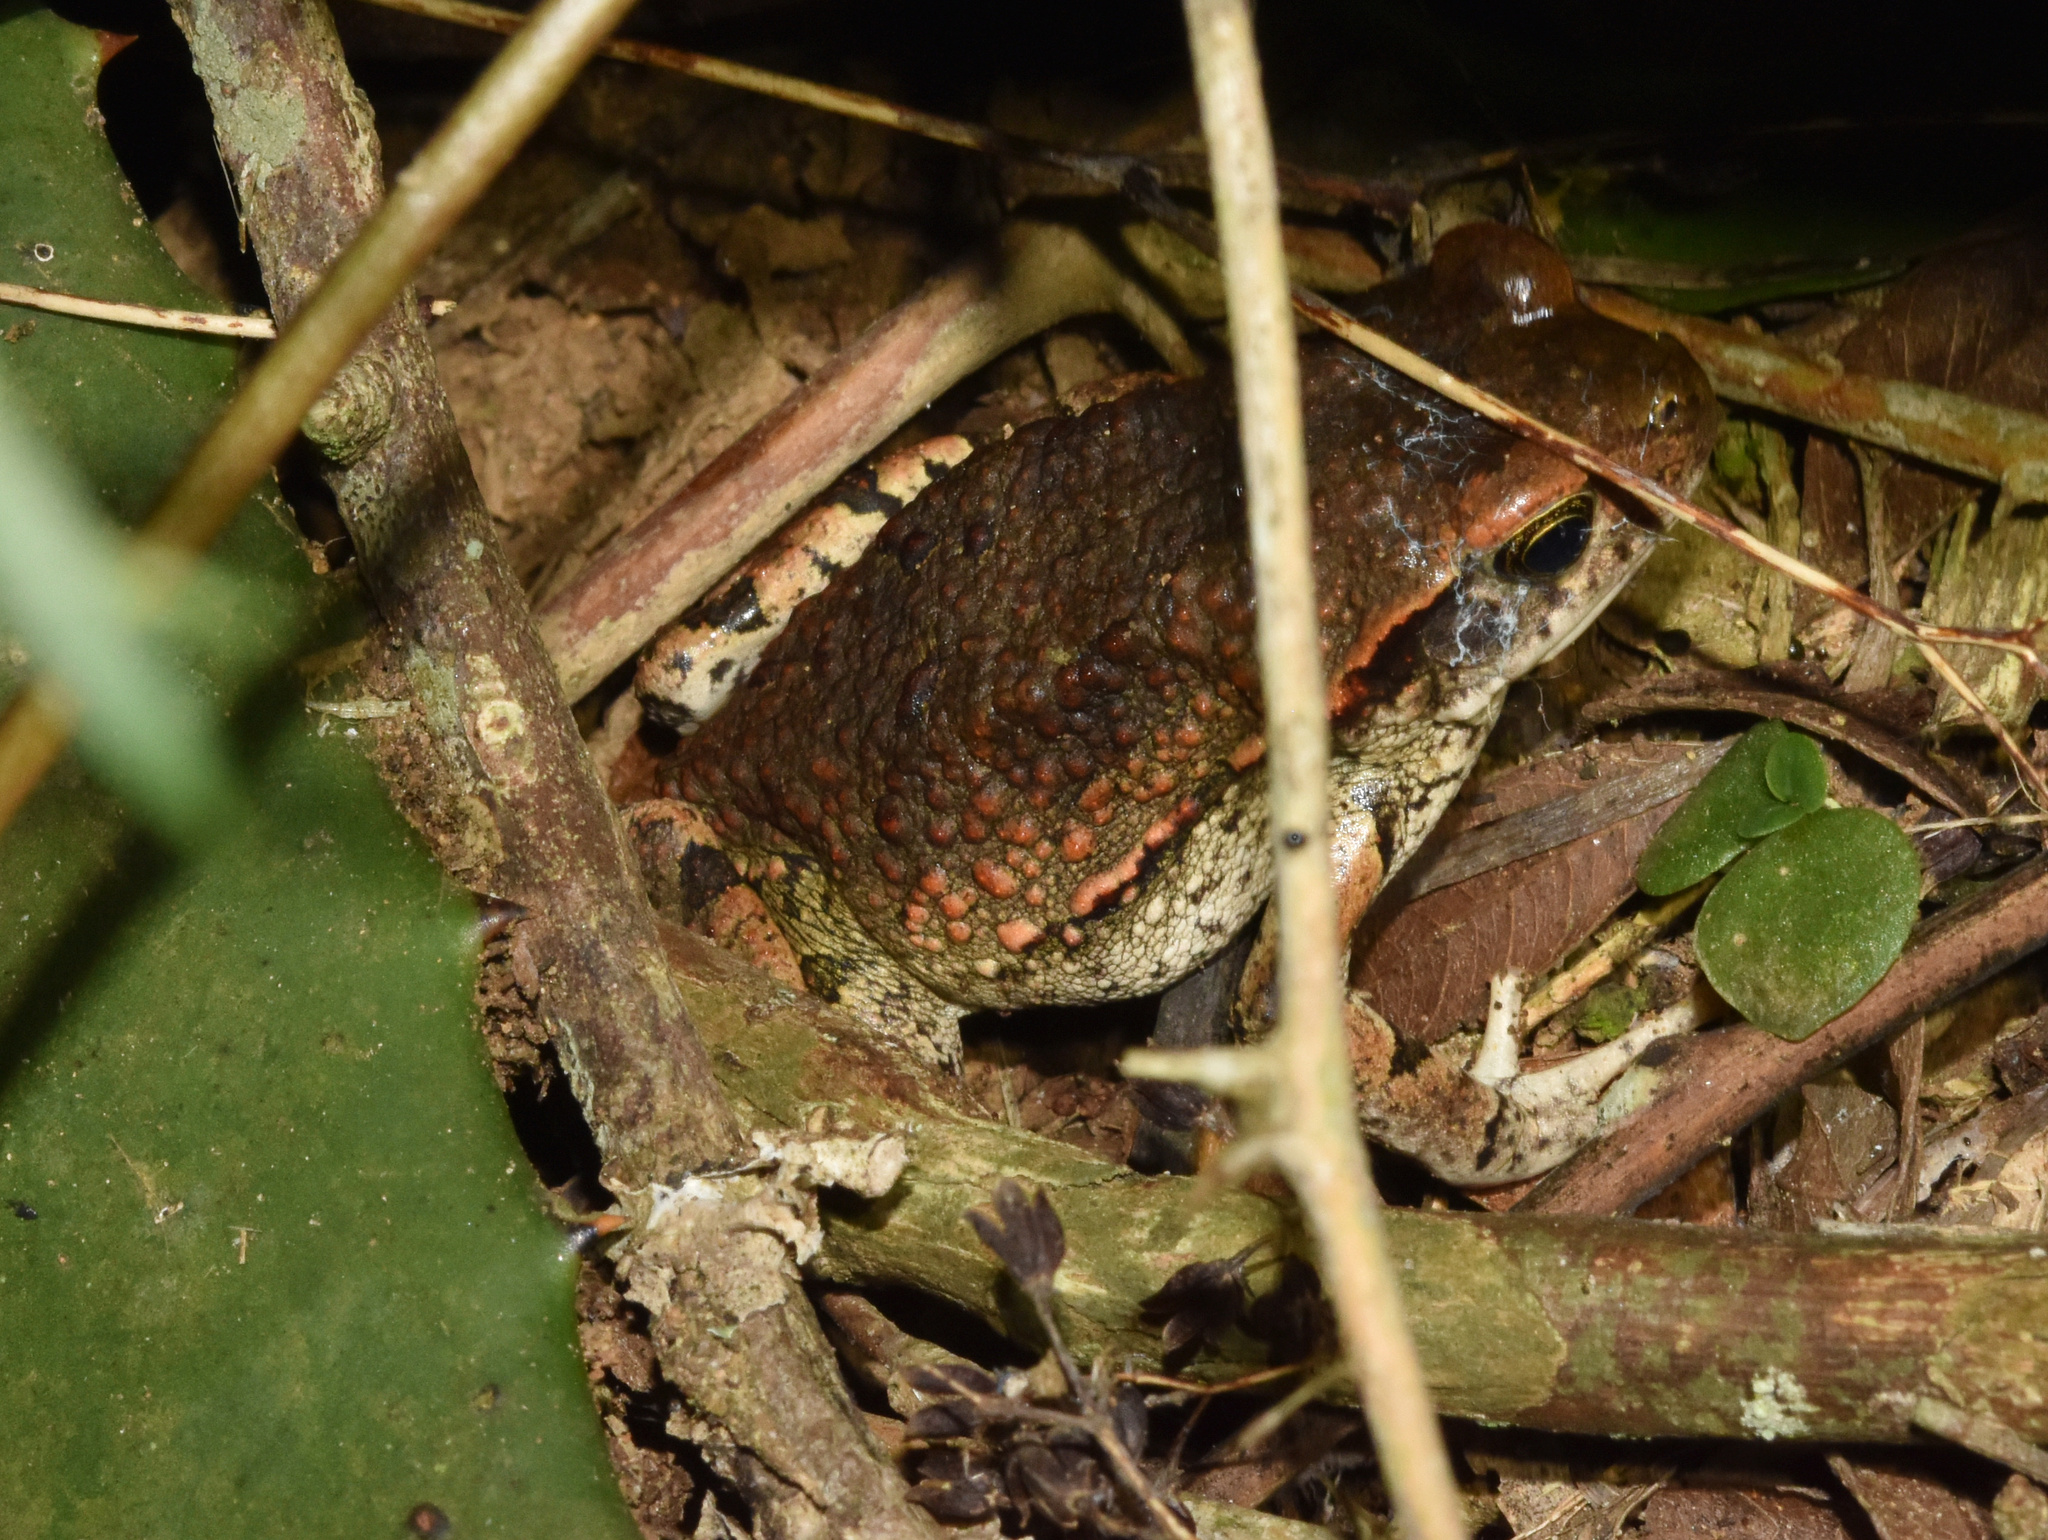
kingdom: Animalia
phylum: Chordata
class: Amphibia
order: Anura
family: Bufonidae
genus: Schismaderma
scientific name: Schismaderma carens
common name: African split-skin toad
